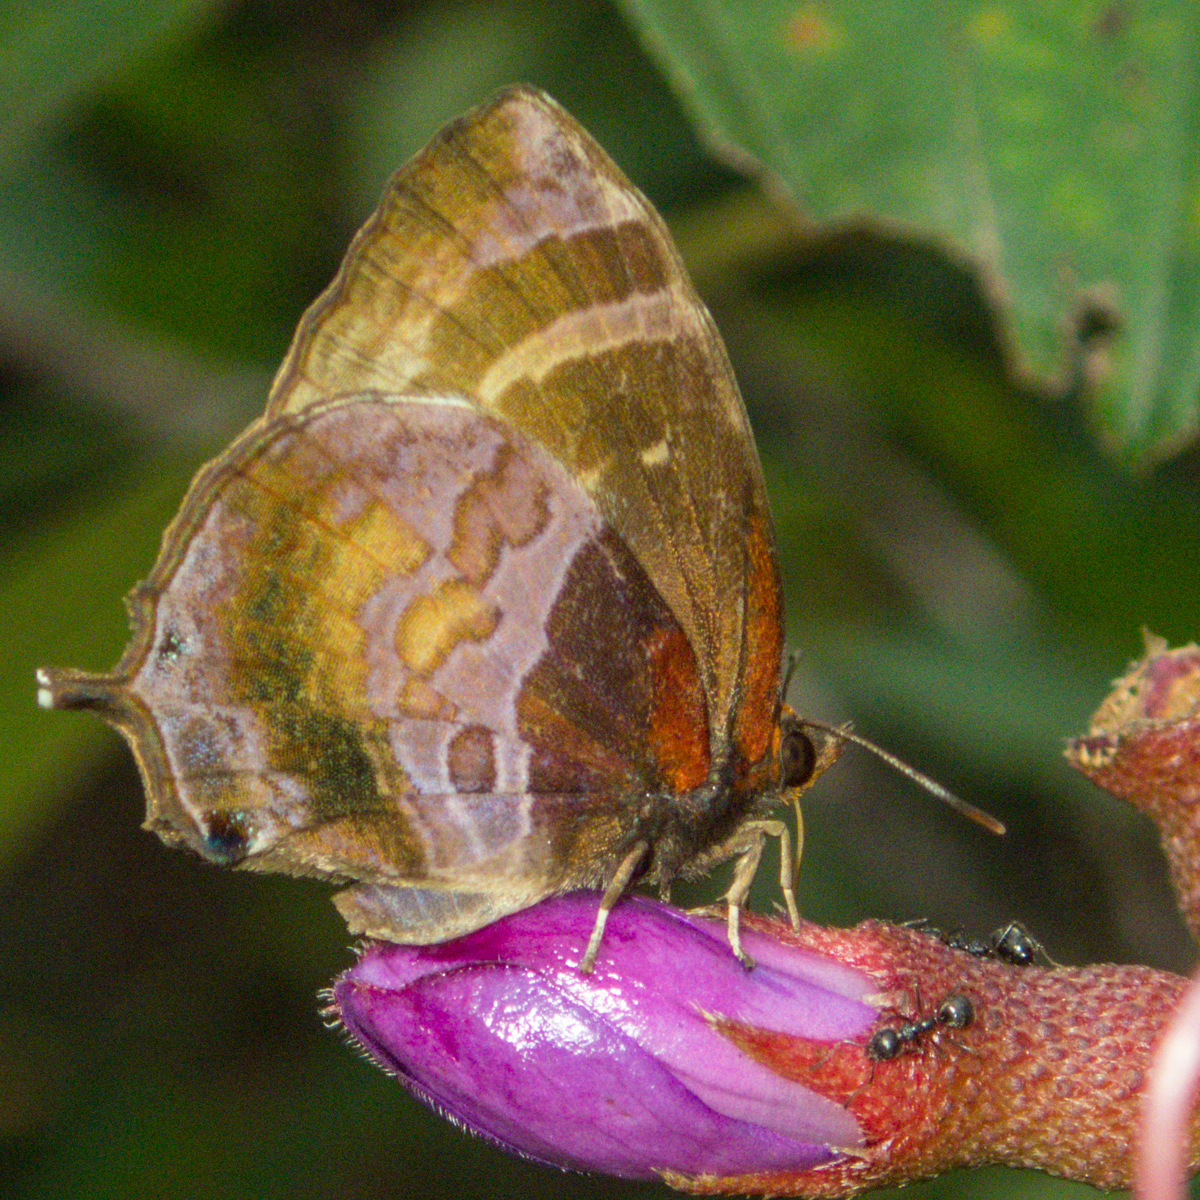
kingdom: Animalia
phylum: Arthropoda
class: Insecta
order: Lepidoptera
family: Lycaenidae
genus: Flos
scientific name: Flos apidanus
